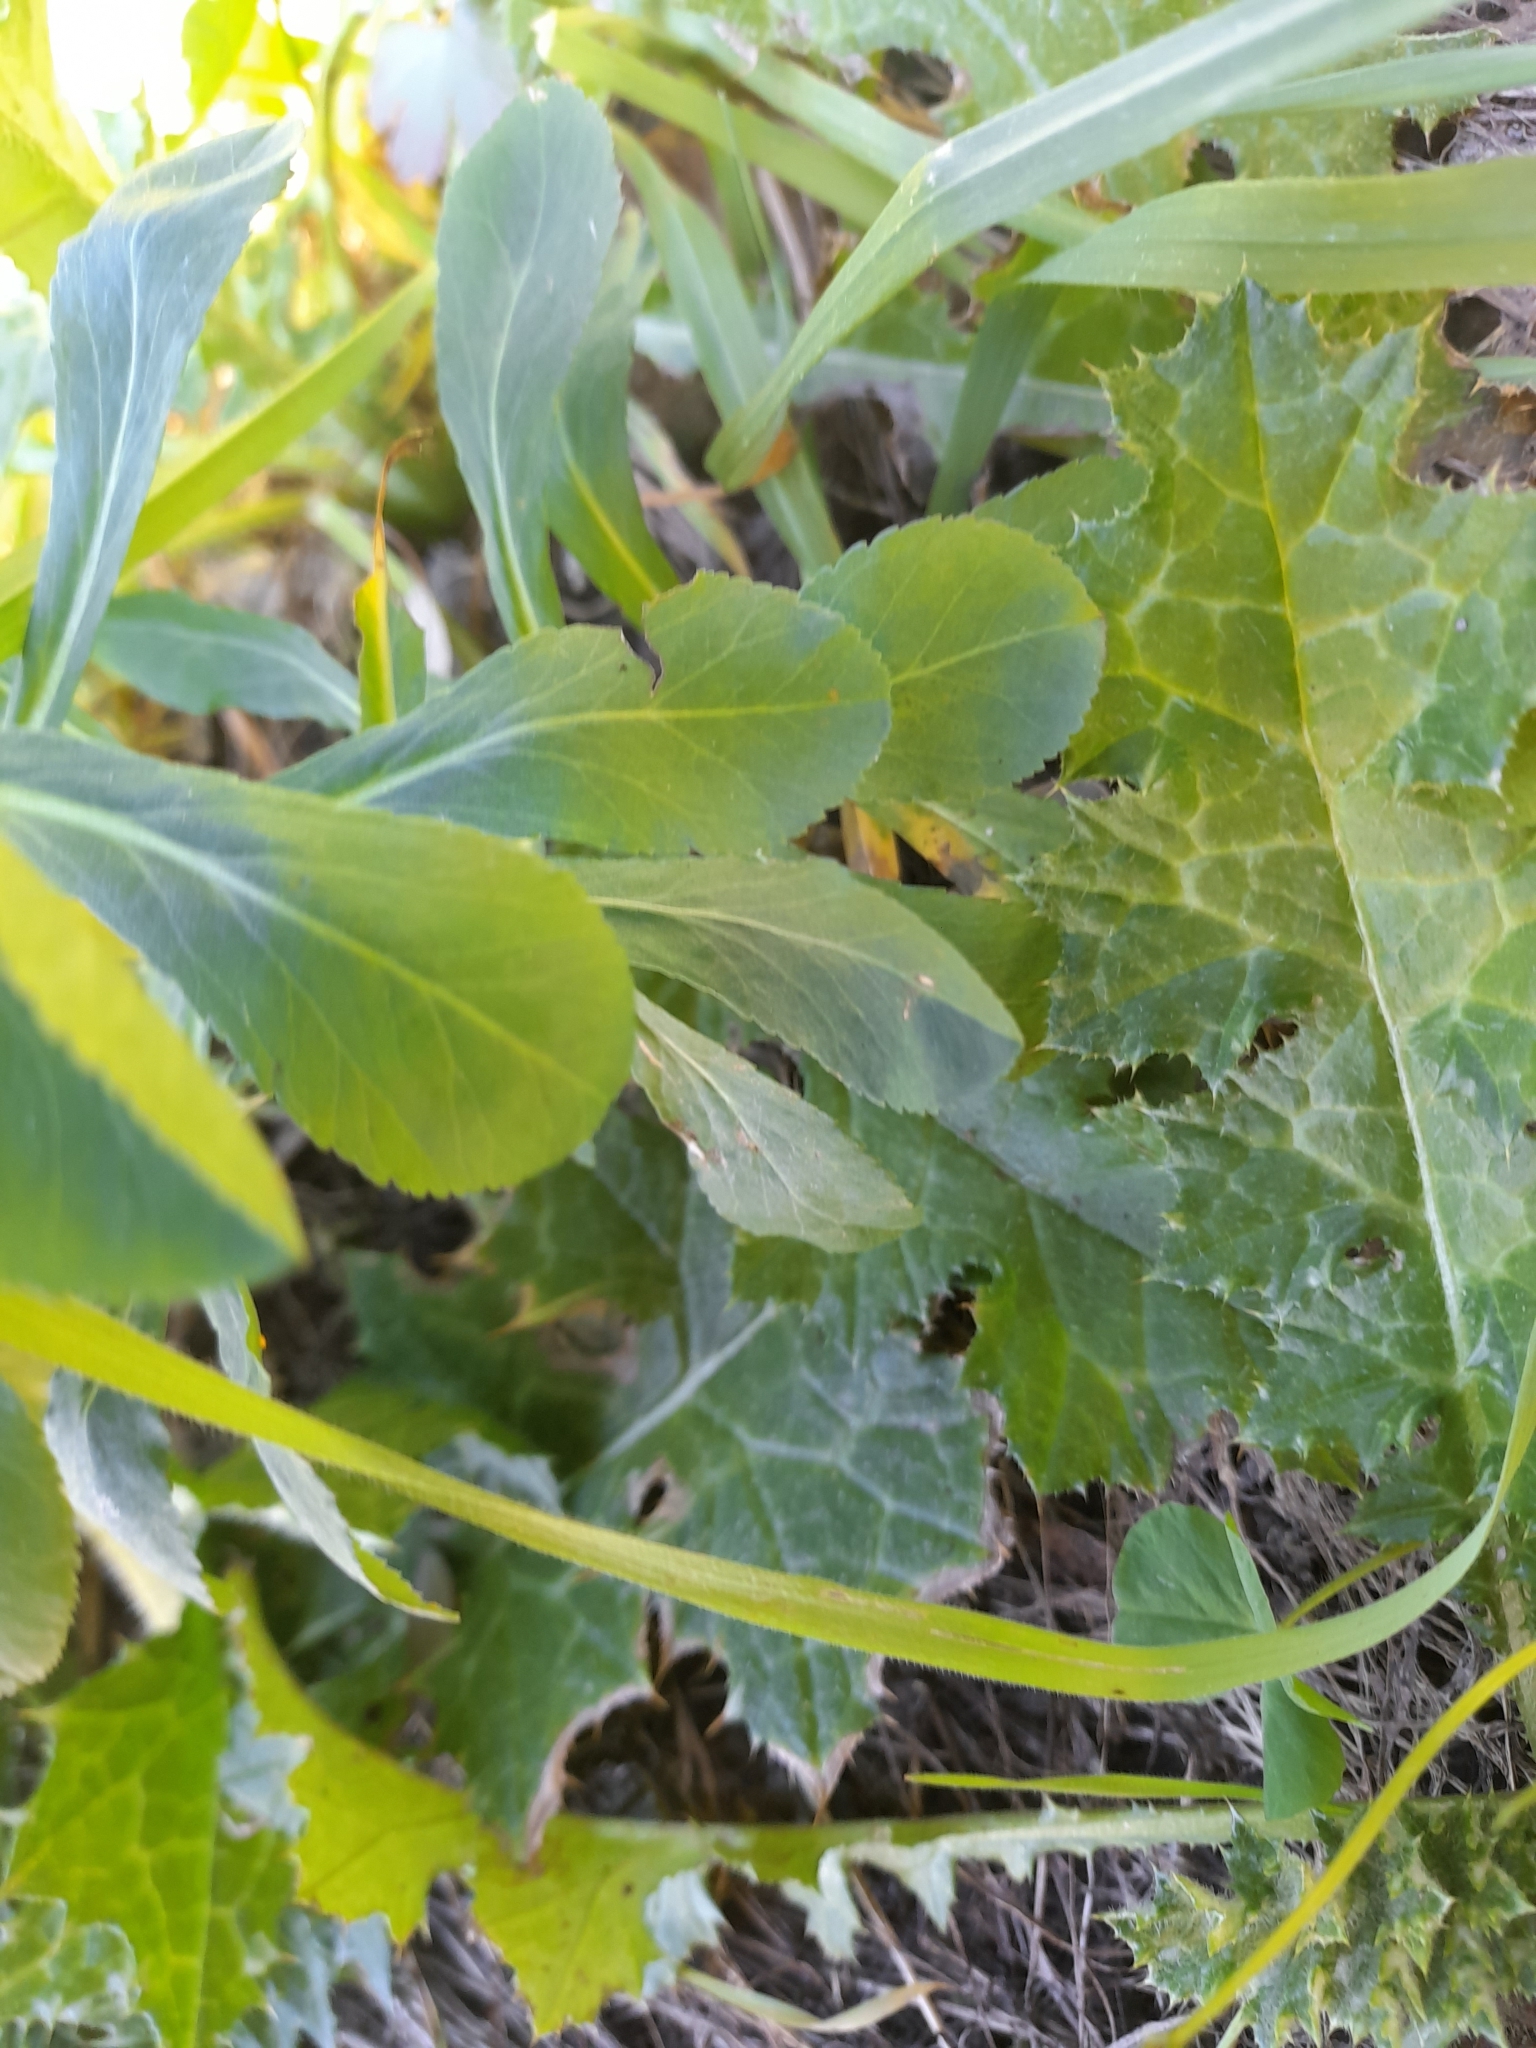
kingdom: Plantae
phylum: Tracheophyta
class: Magnoliopsida
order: Malpighiales
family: Euphorbiaceae
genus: Euphorbia
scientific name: Euphorbia helioscopia
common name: Sun spurge
